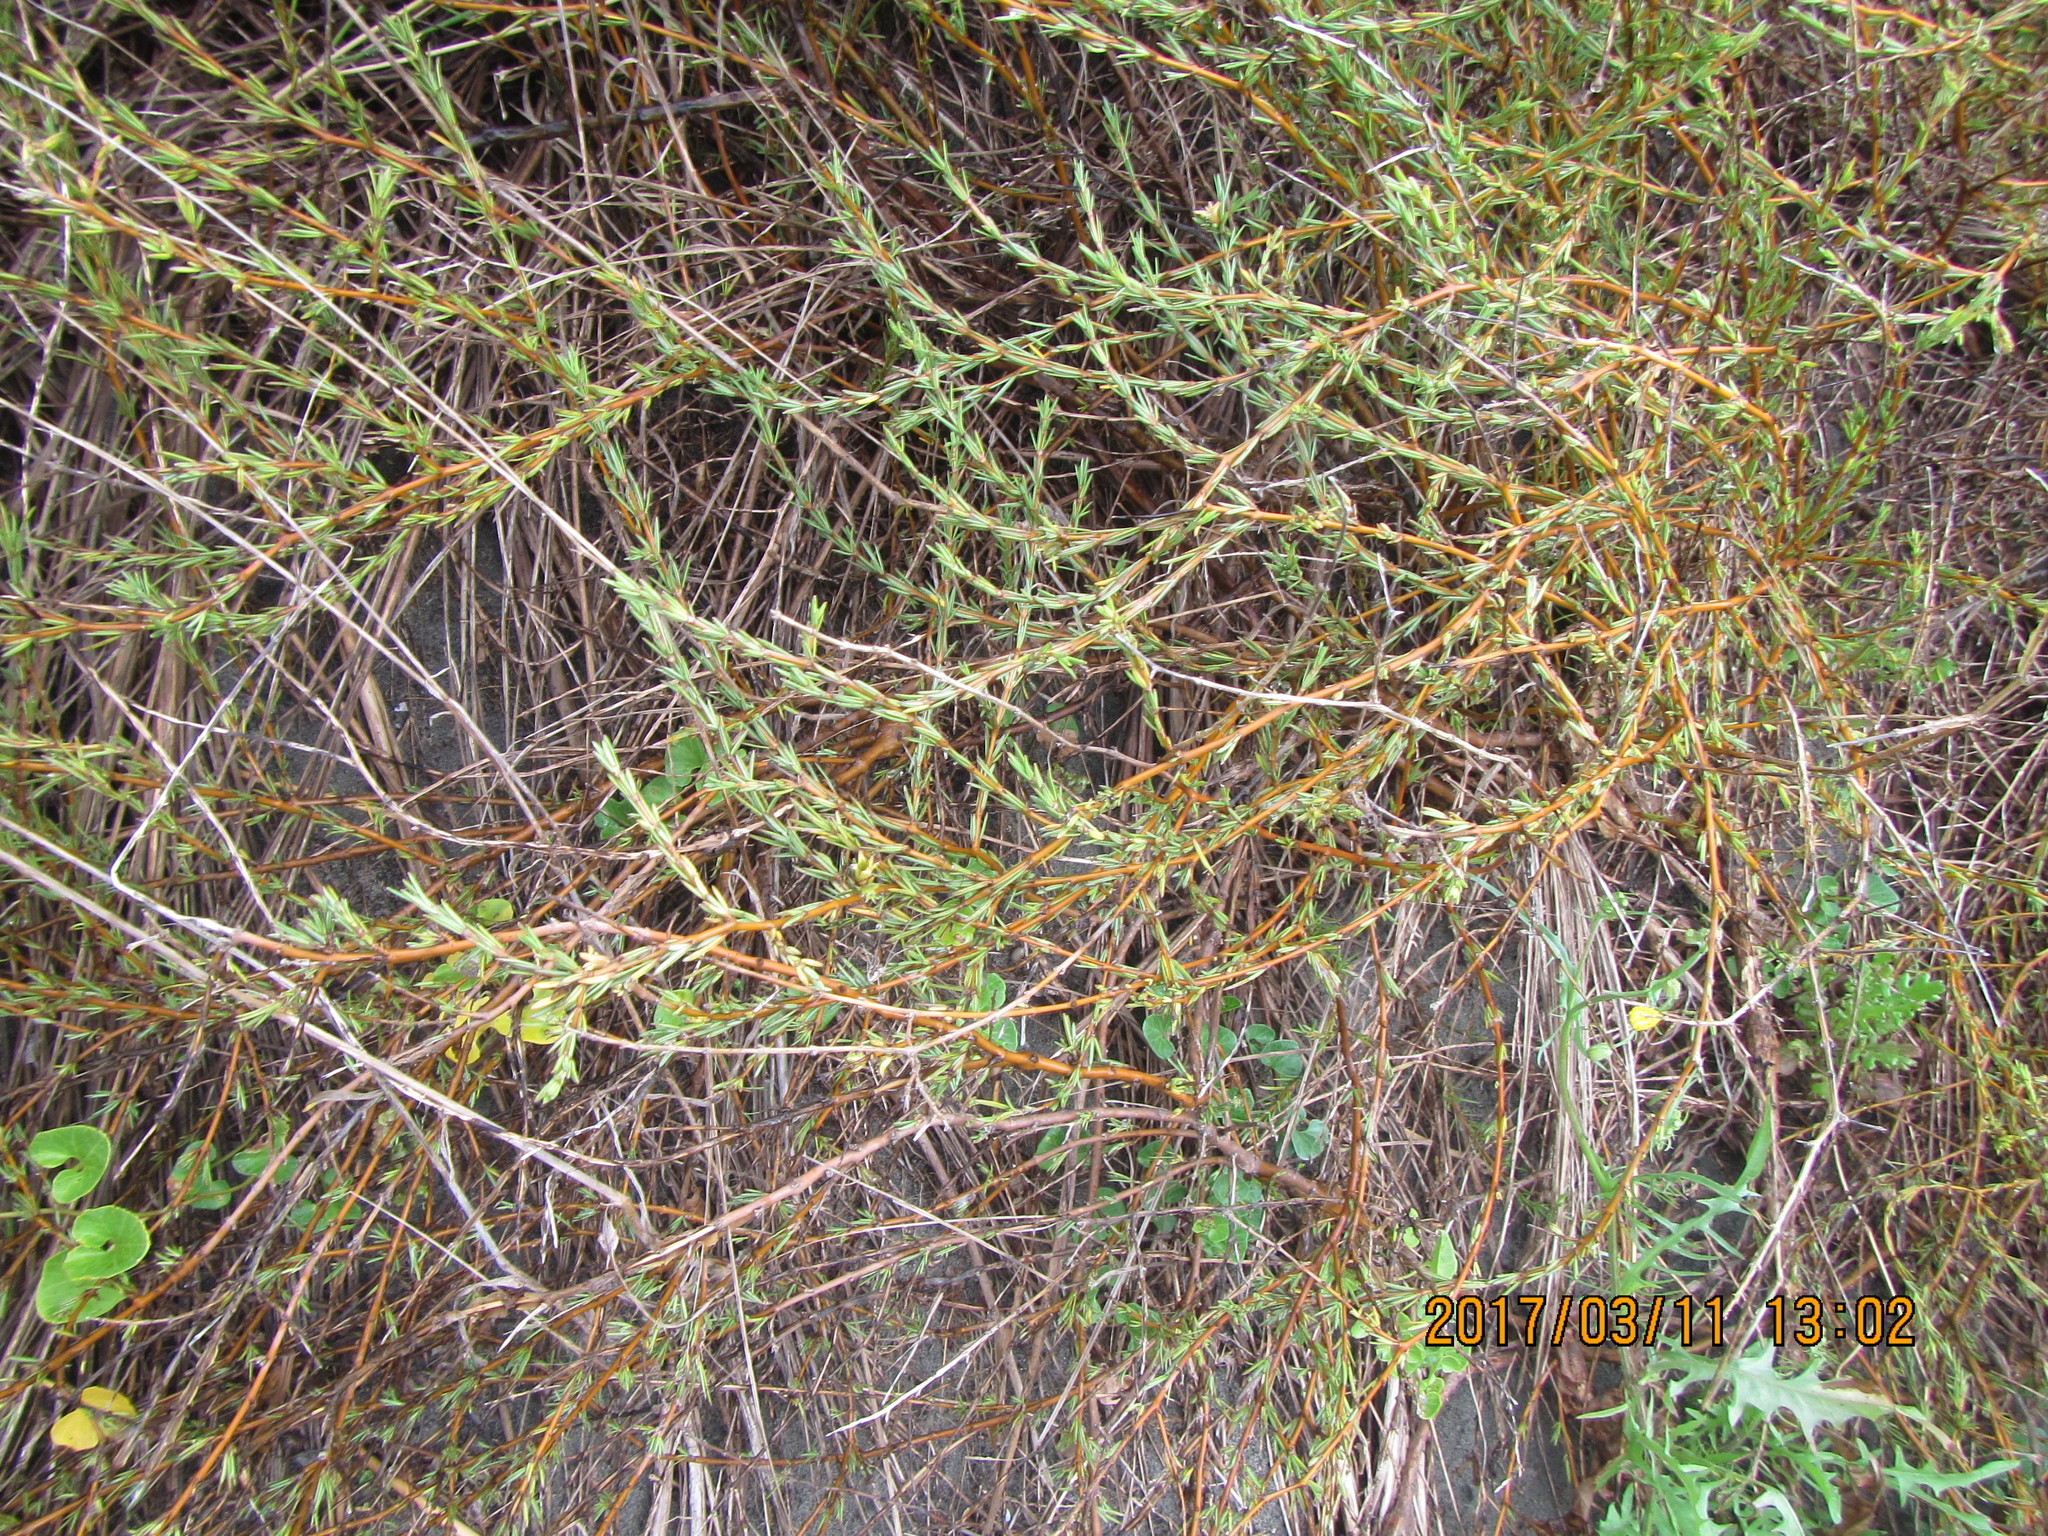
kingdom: Plantae
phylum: Tracheophyta
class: Magnoliopsida
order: Gentianales
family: Rubiaceae
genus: Coprosma
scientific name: Coprosma acerosa
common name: Sand coprosma
